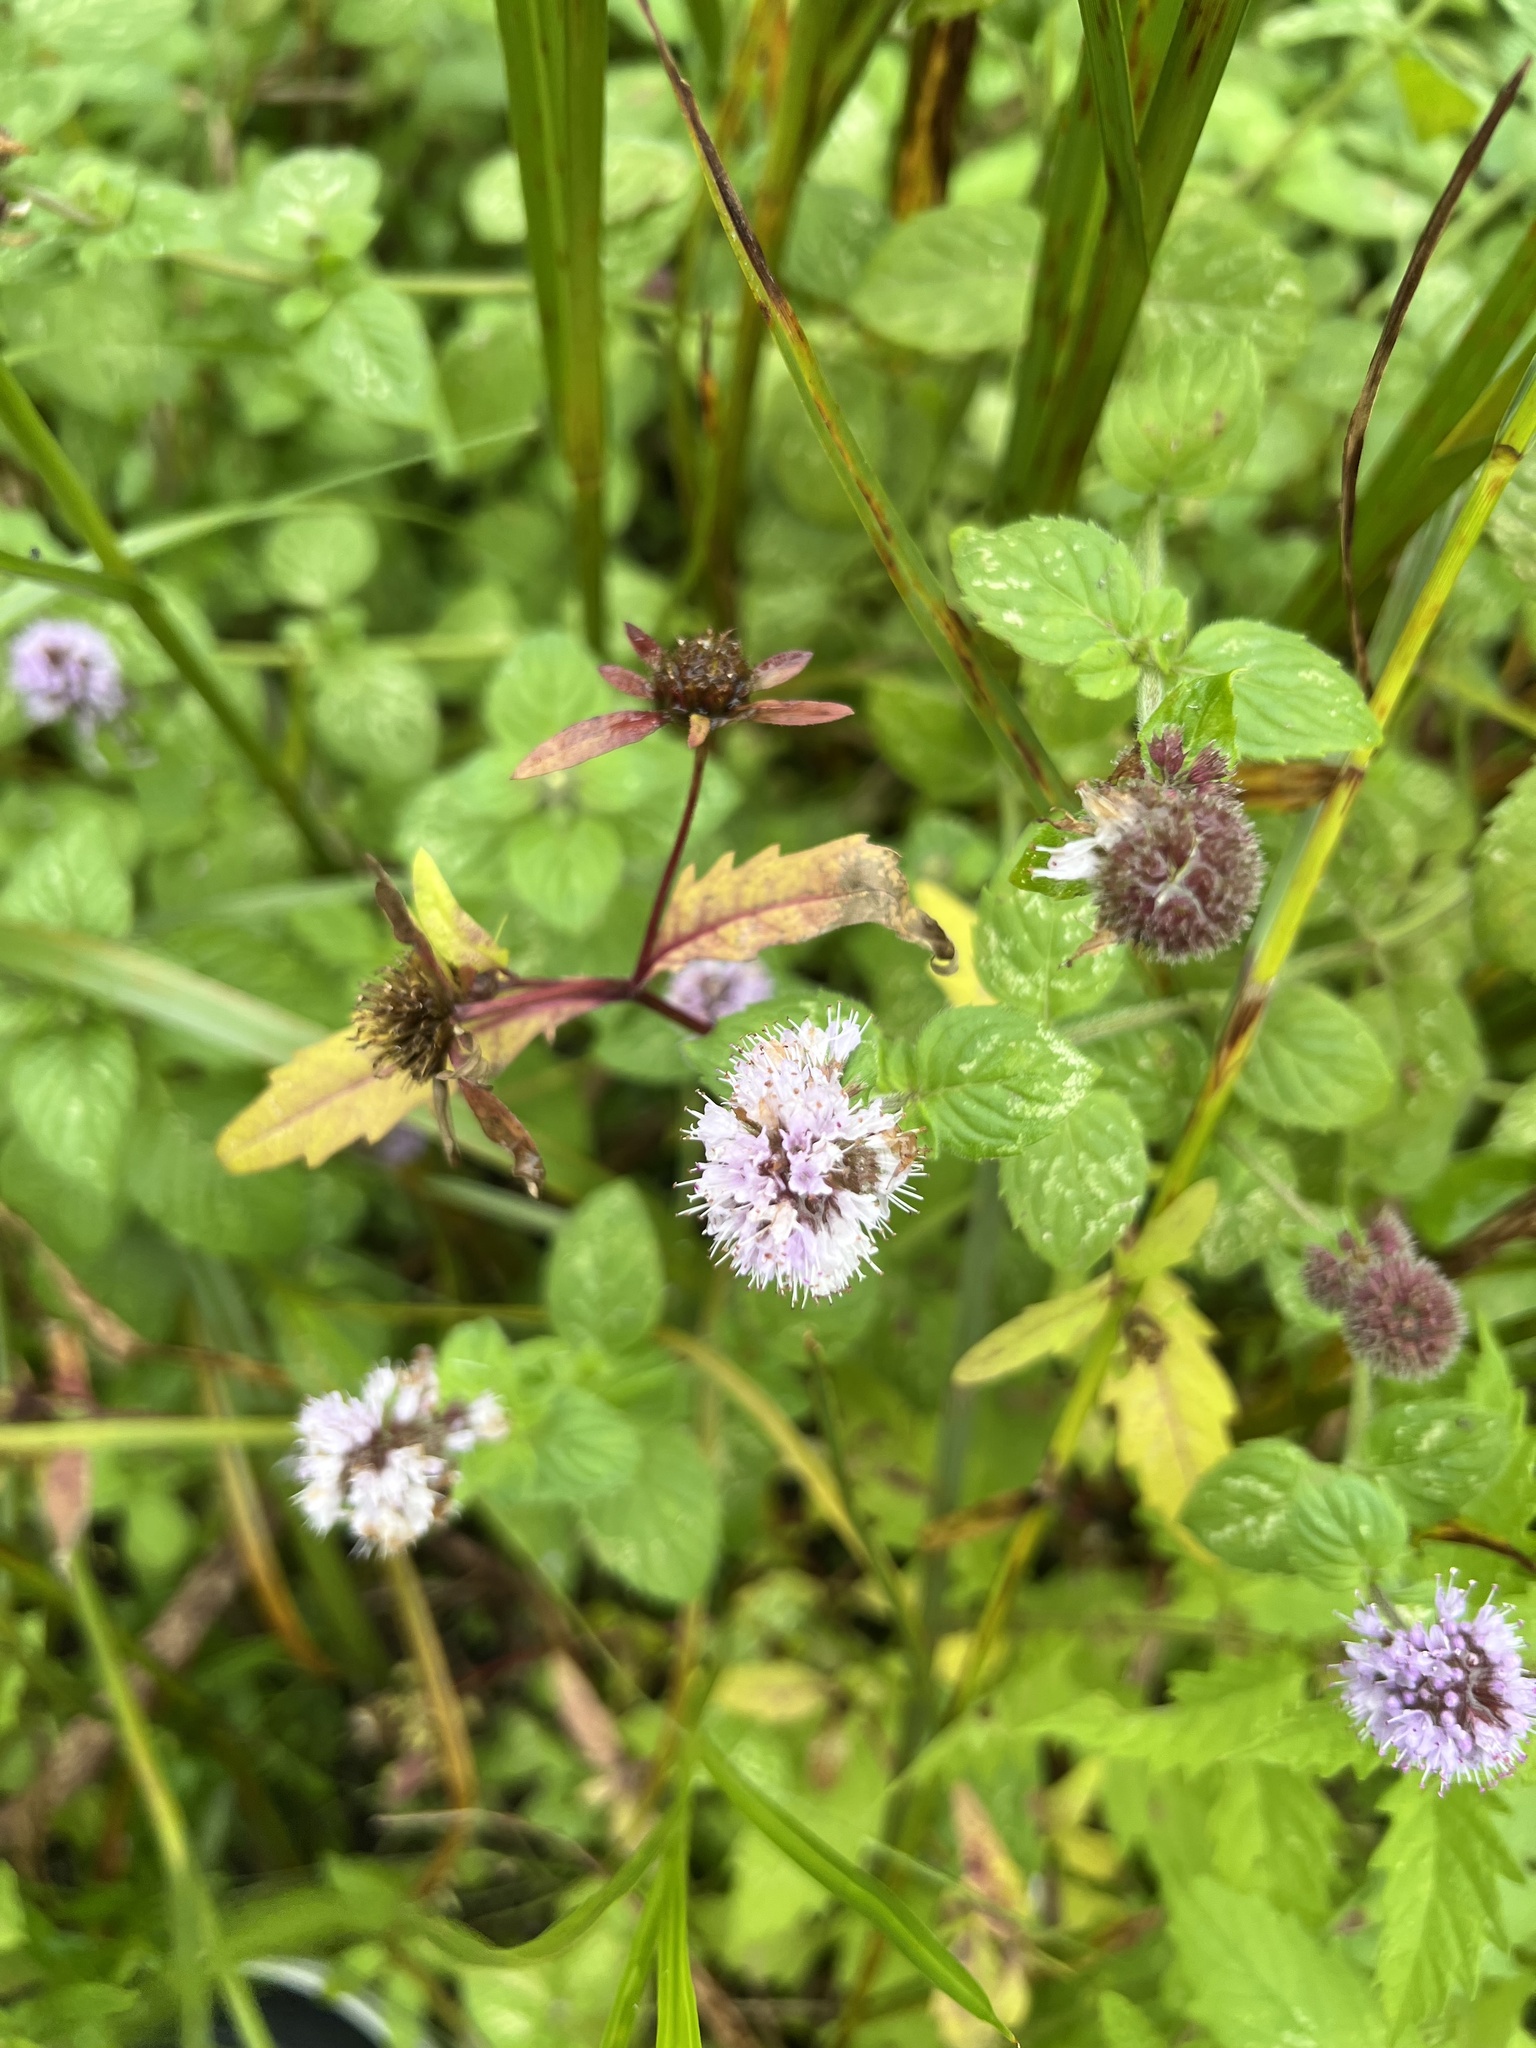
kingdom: Plantae
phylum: Tracheophyta
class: Magnoliopsida
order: Lamiales
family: Lamiaceae
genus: Mentha
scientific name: Mentha aquatica
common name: Water mint
